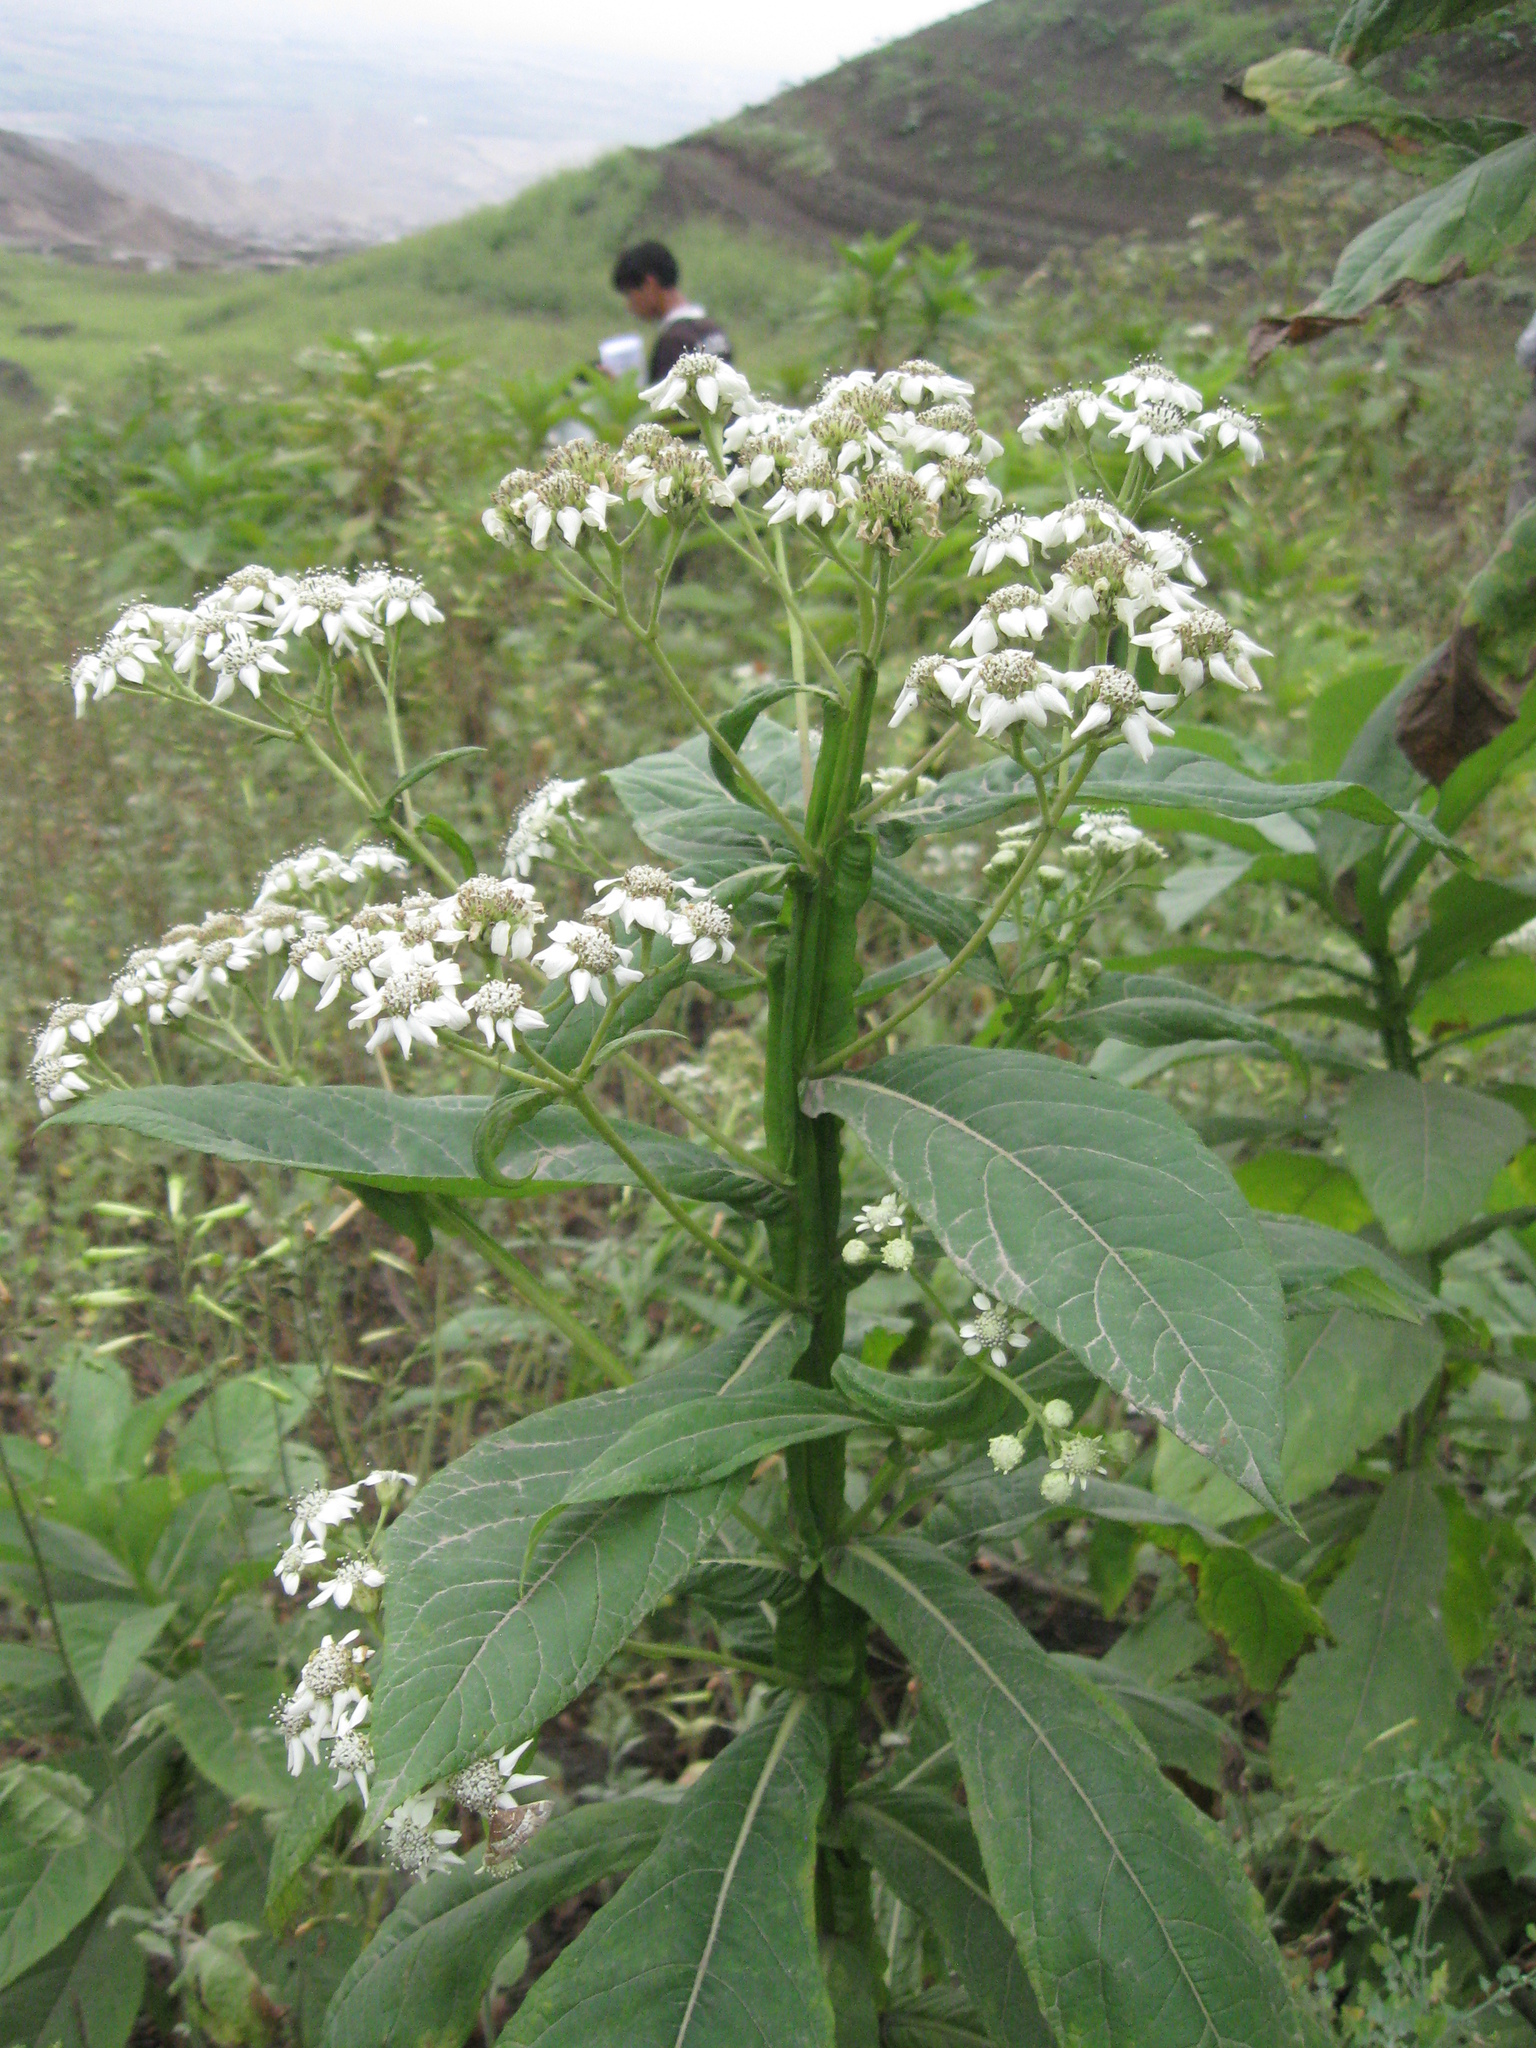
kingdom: Plantae
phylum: Tracheophyta
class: Magnoliopsida
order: Asterales
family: Asteraceae
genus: Verbesina
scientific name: Verbesina saubinetioides
